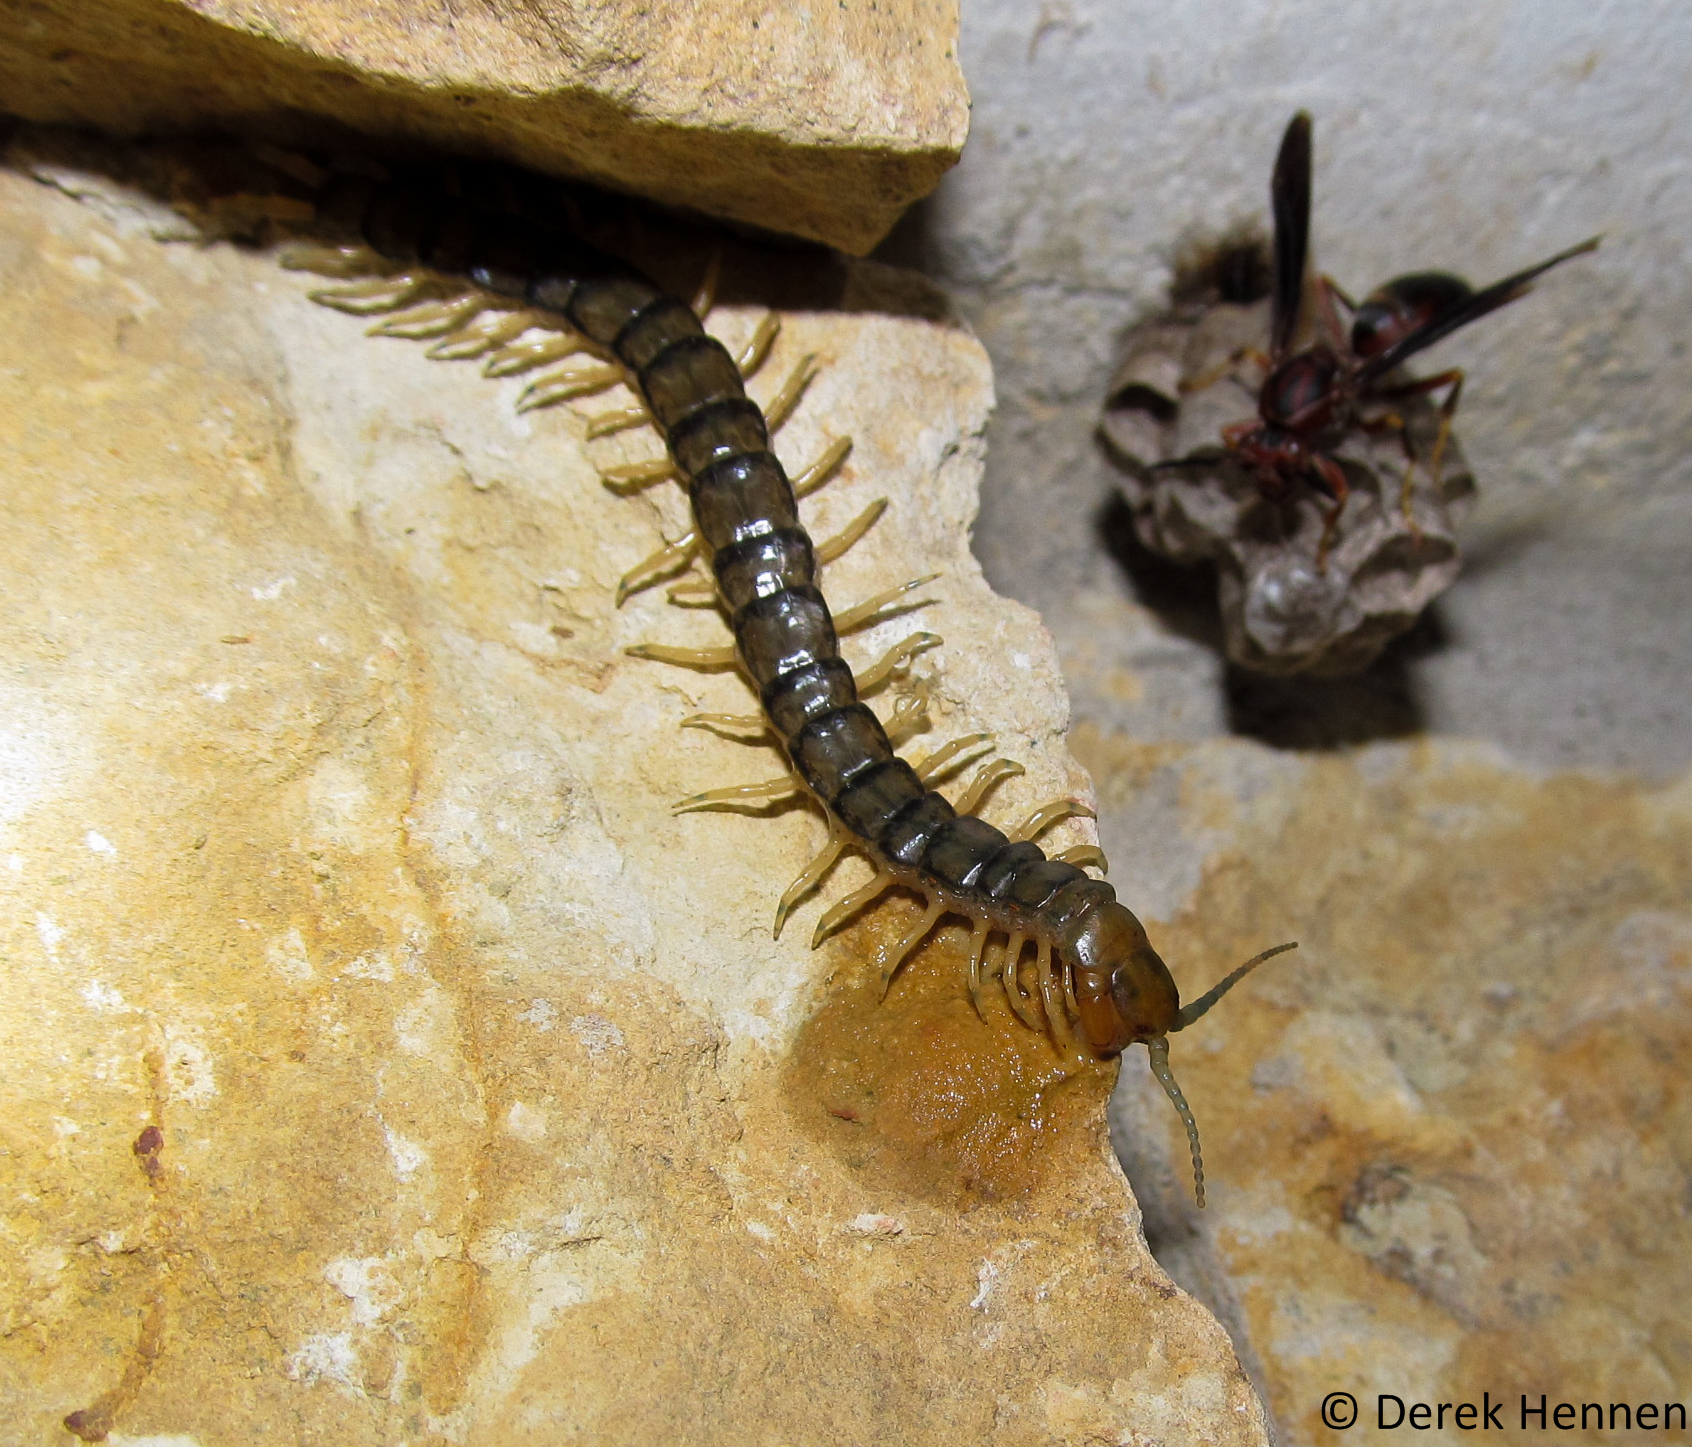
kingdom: Animalia
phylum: Arthropoda
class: Chilopoda
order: Scolopendromorpha
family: Scolopendridae
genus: Hemiscolopendra
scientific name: Hemiscolopendra marginata
